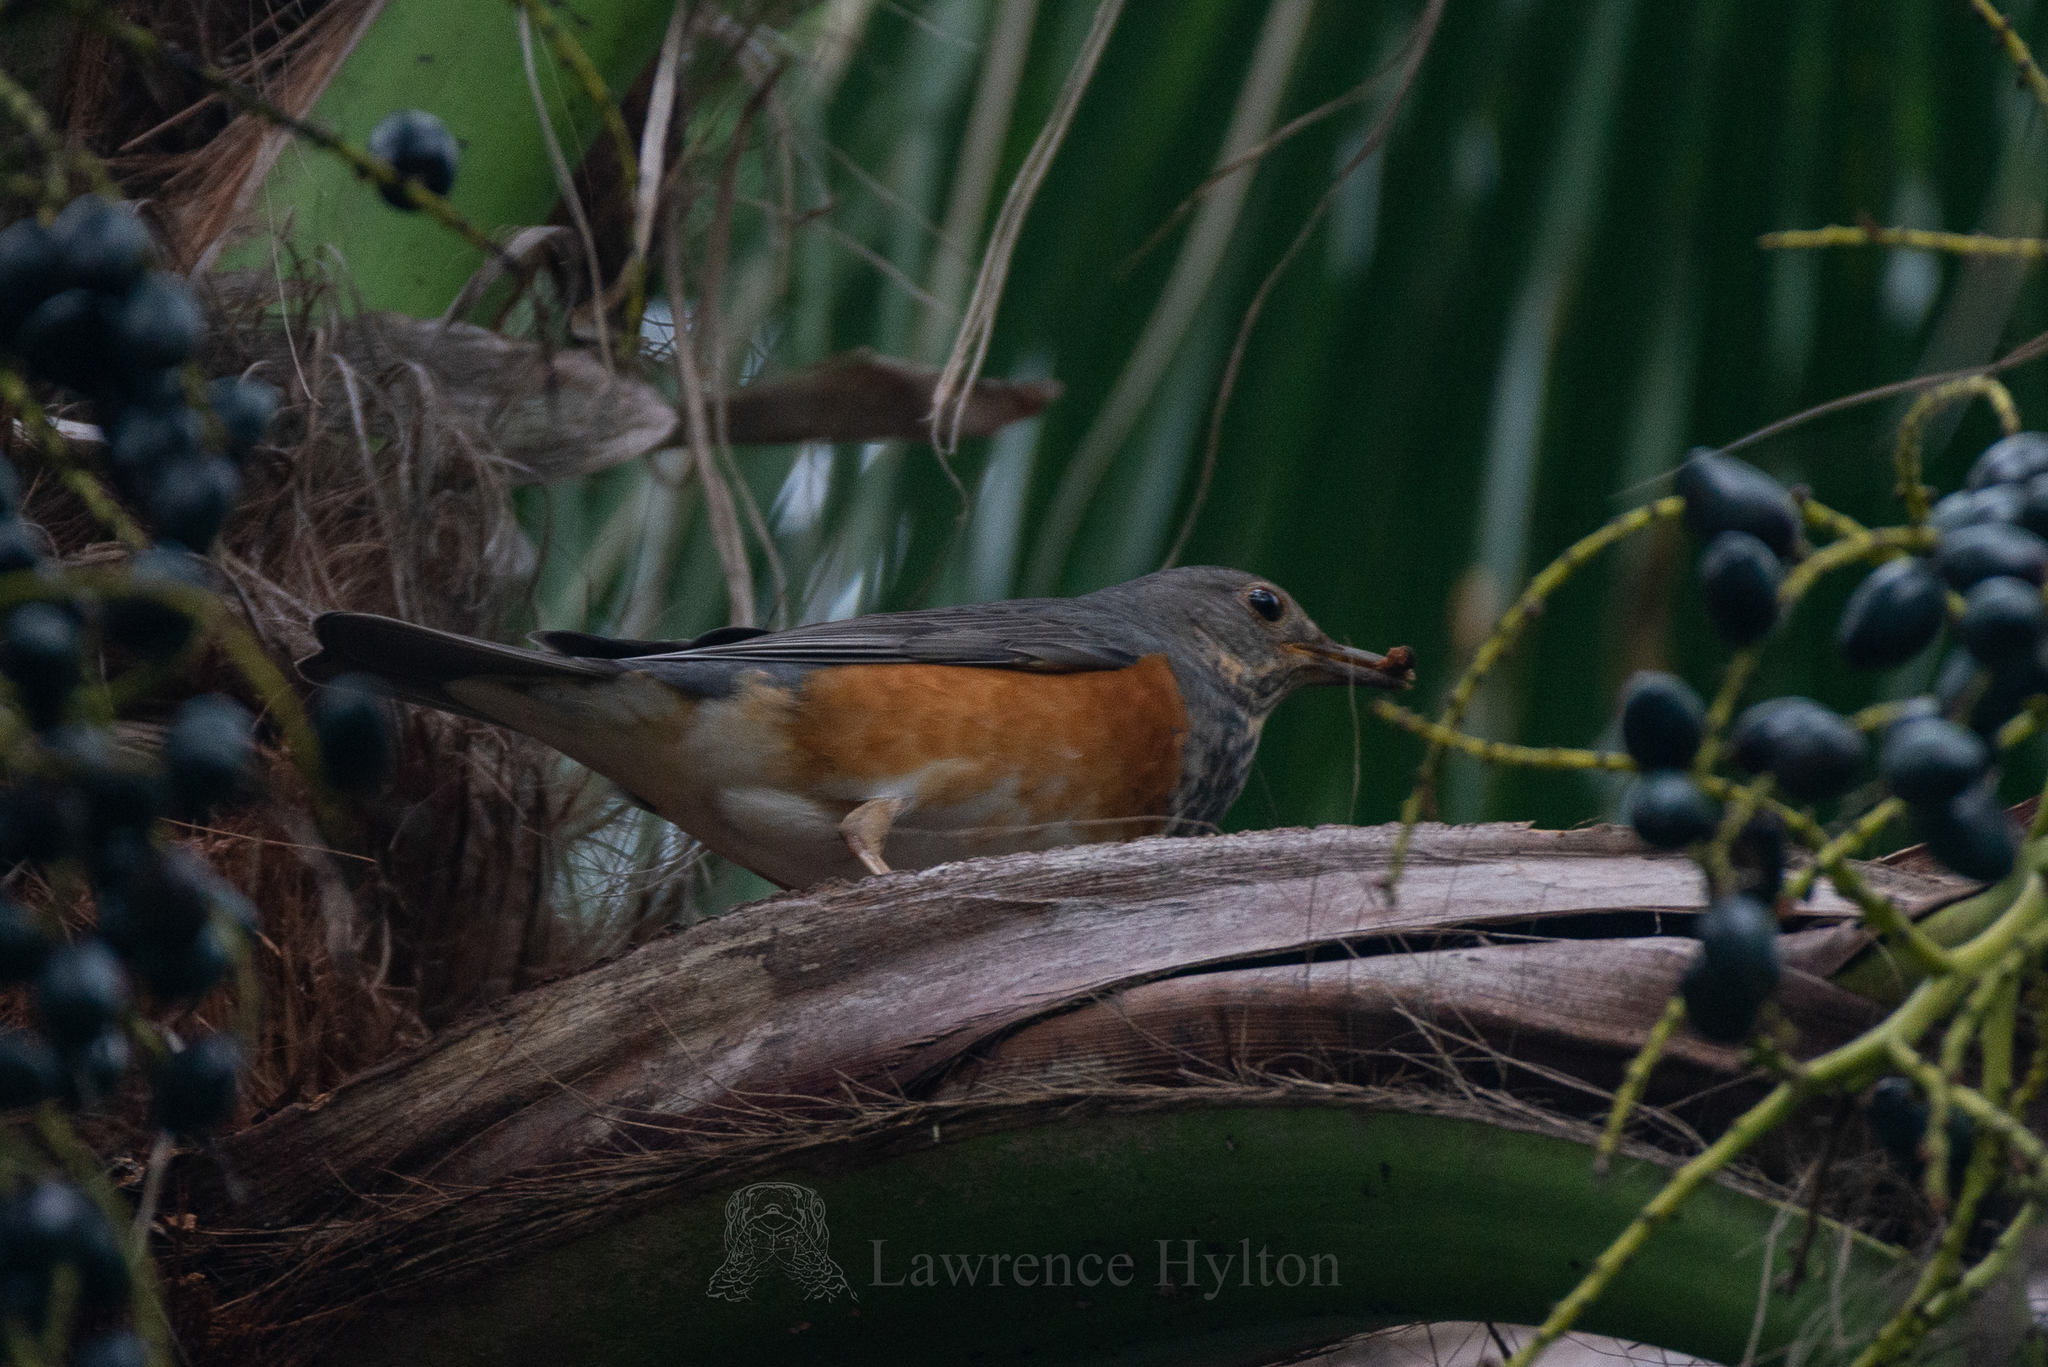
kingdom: Animalia
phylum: Chordata
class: Aves
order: Passeriformes
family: Turdidae
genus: Turdus
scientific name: Turdus hortulorum
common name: Grey-backed thrush
